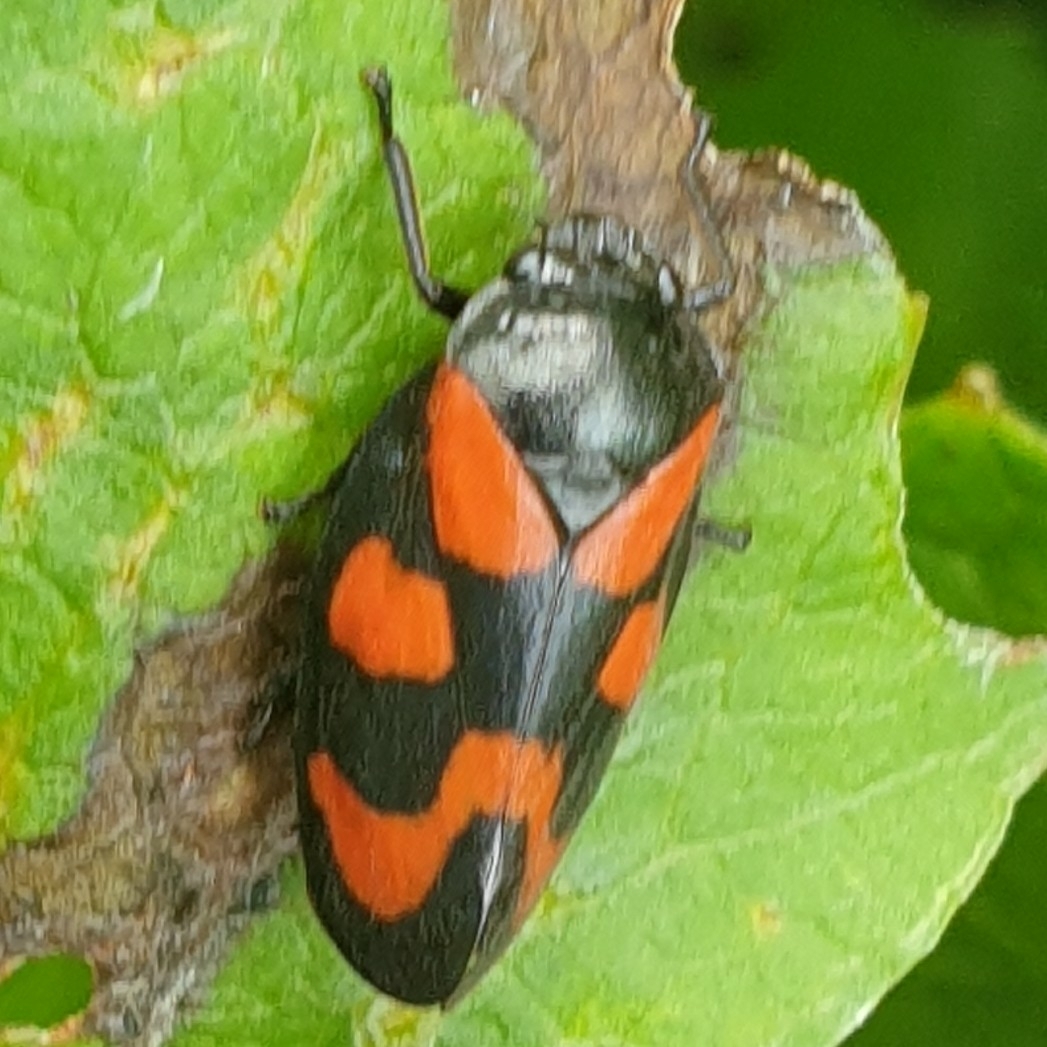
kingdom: Animalia
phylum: Arthropoda
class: Insecta
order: Hemiptera
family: Cercopidae
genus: Cercopis
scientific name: Cercopis vulnerata
